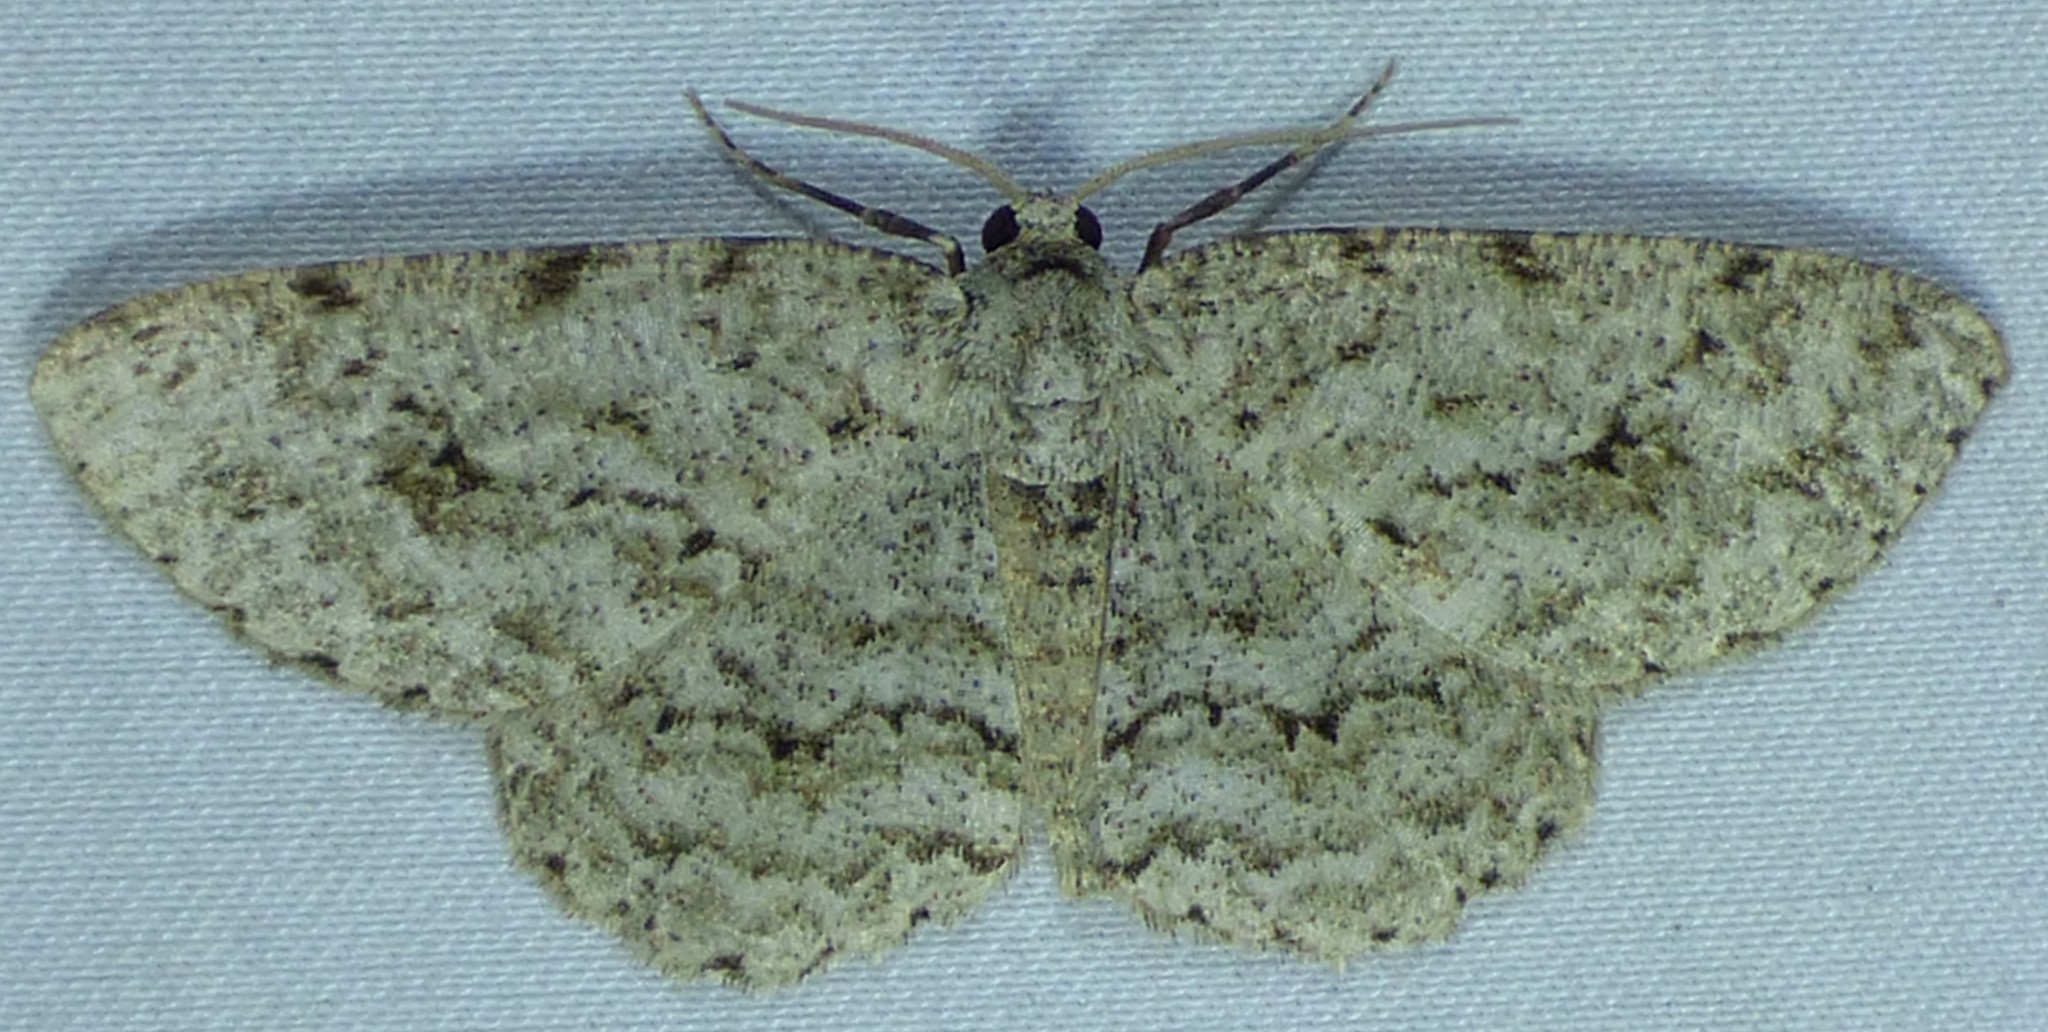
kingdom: Animalia
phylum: Arthropoda
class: Insecta
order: Lepidoptera
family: Geometridae
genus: Ectropis
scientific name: Ectropis crepuscularia
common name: Engrailed
